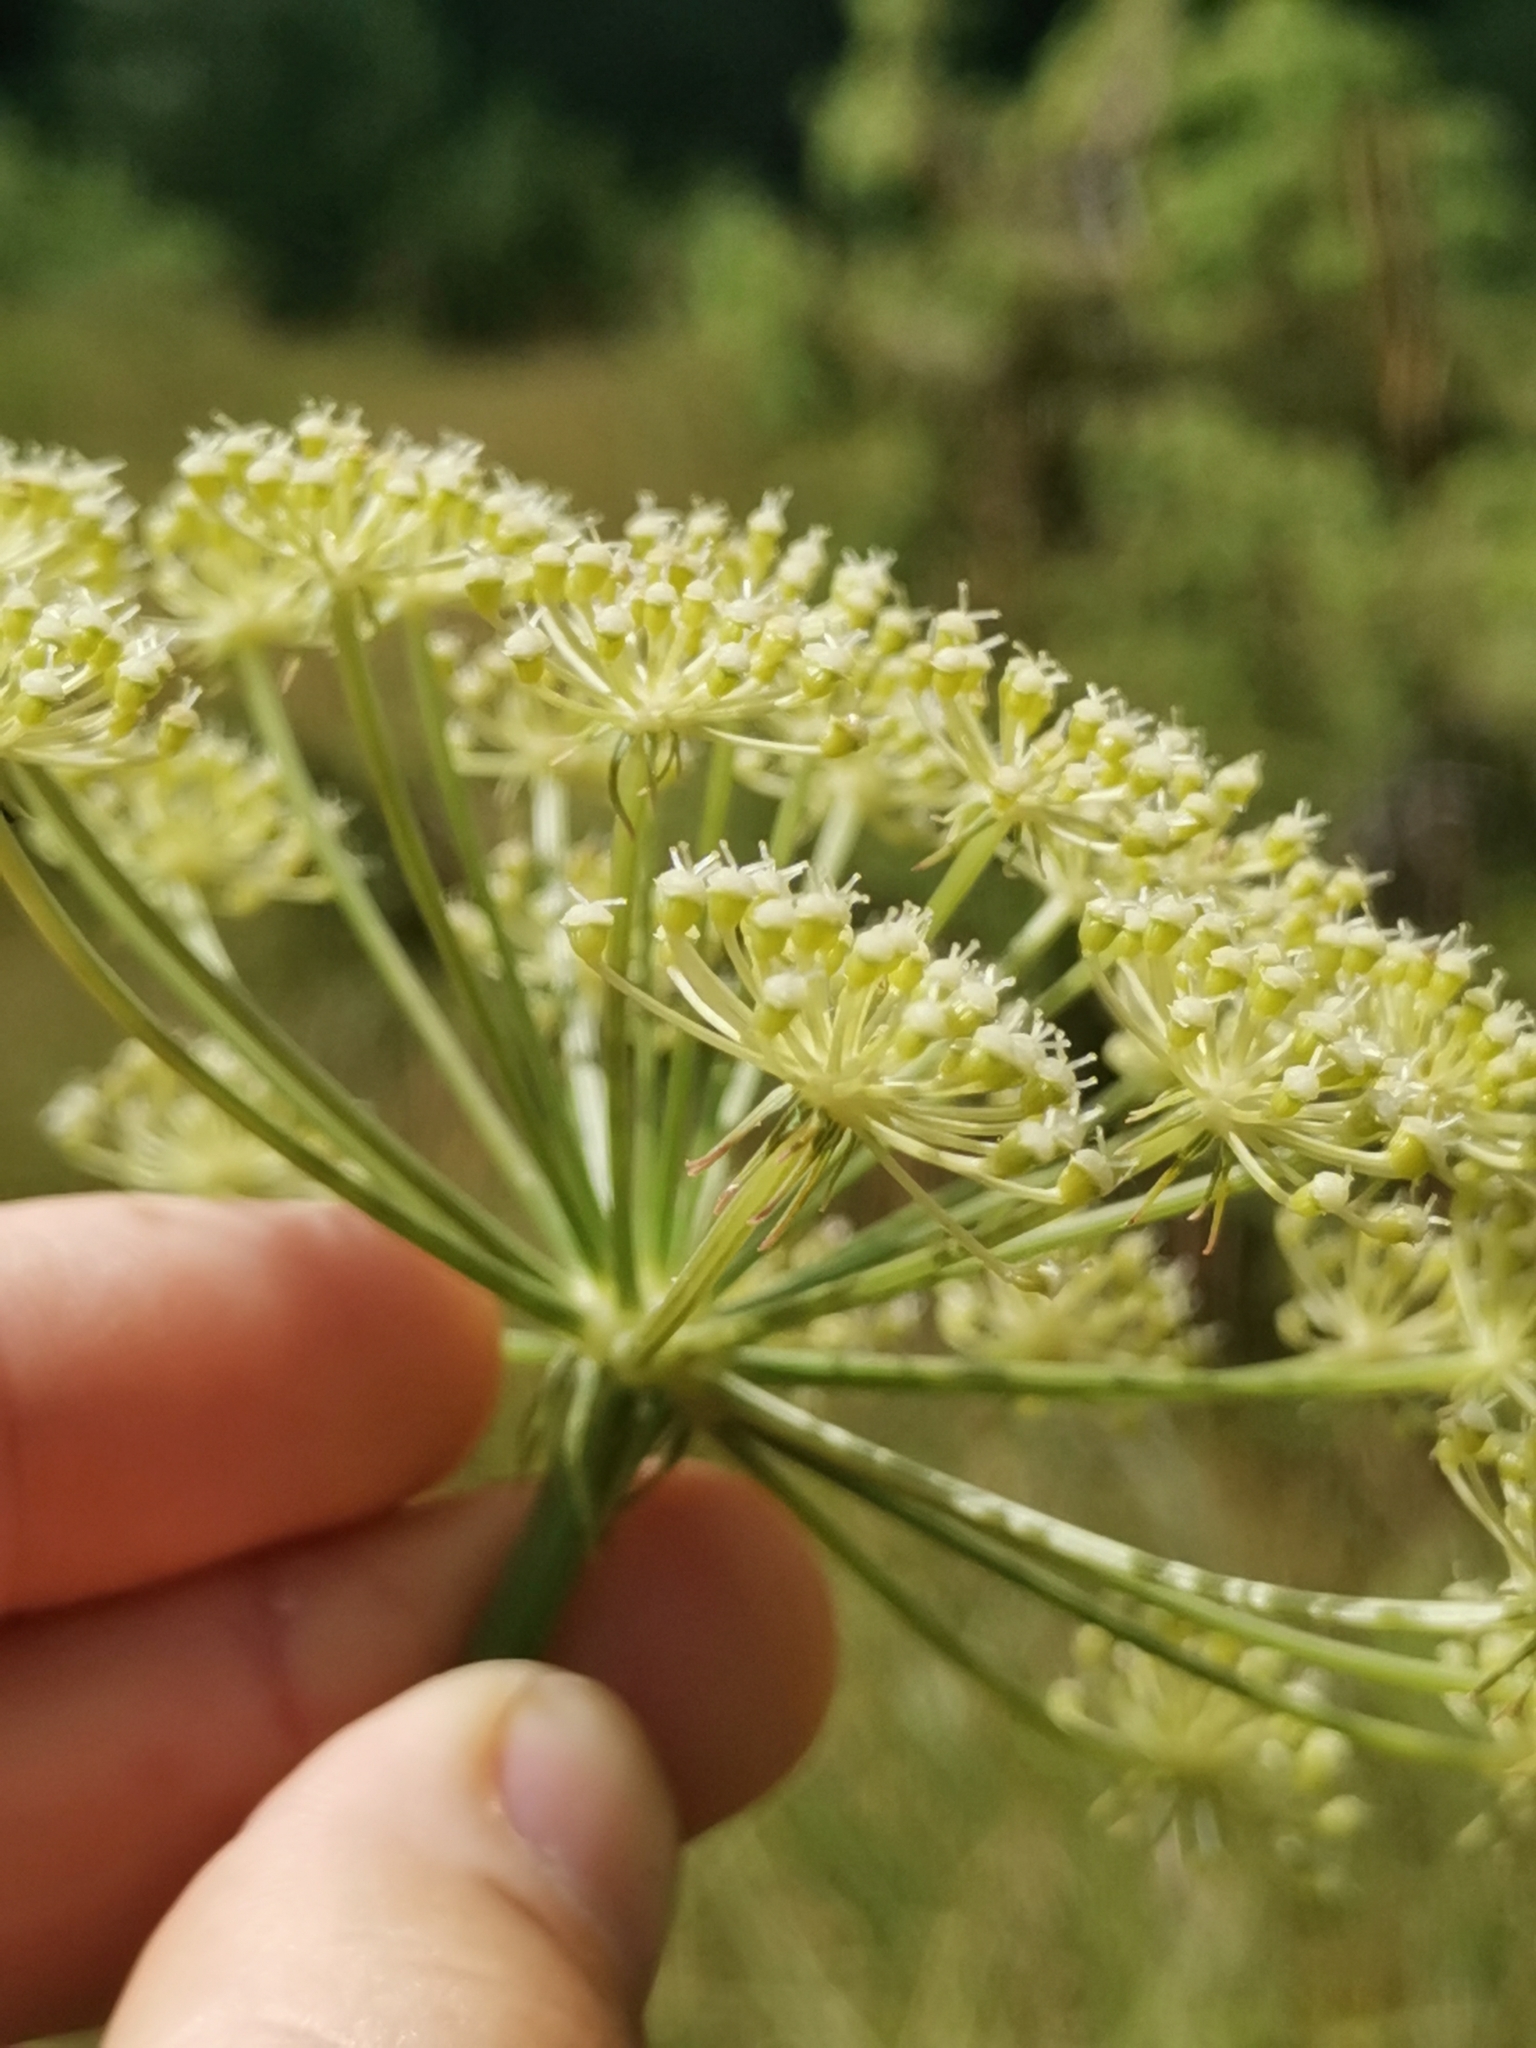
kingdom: Plantae
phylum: Tracheophyta
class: Magnoliopsida
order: Apiales
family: Apiaceae
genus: Oreoselinum
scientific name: Oreoselinum nigrum
